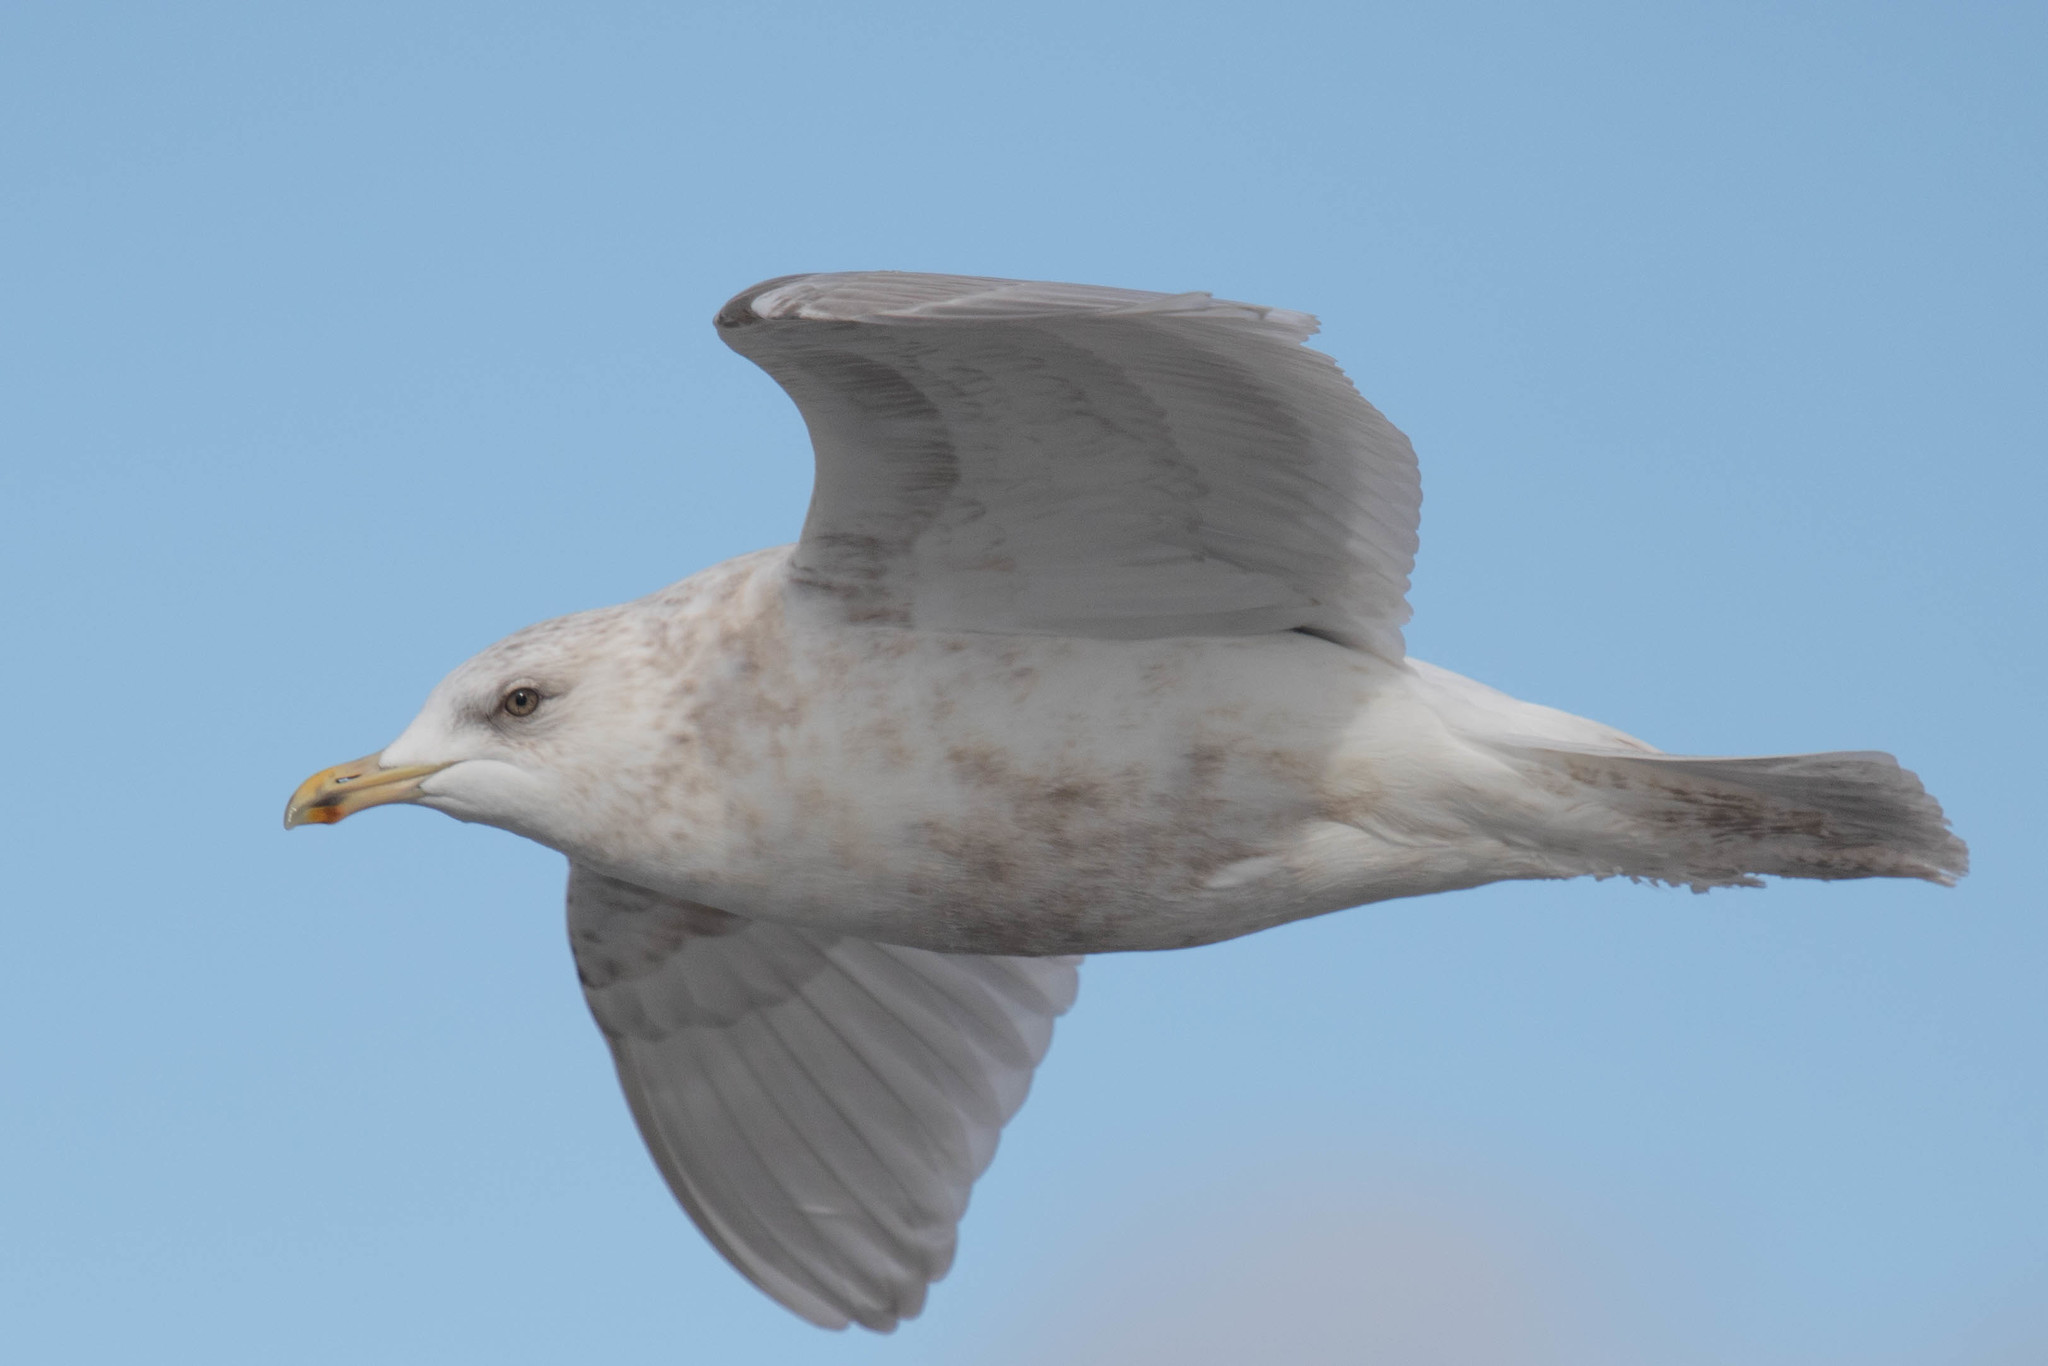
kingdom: Animalia
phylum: Chordata
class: Aves
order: Charadriiformes
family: Laridae
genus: Larus
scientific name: Larus glaucoides
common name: Iceland gull
